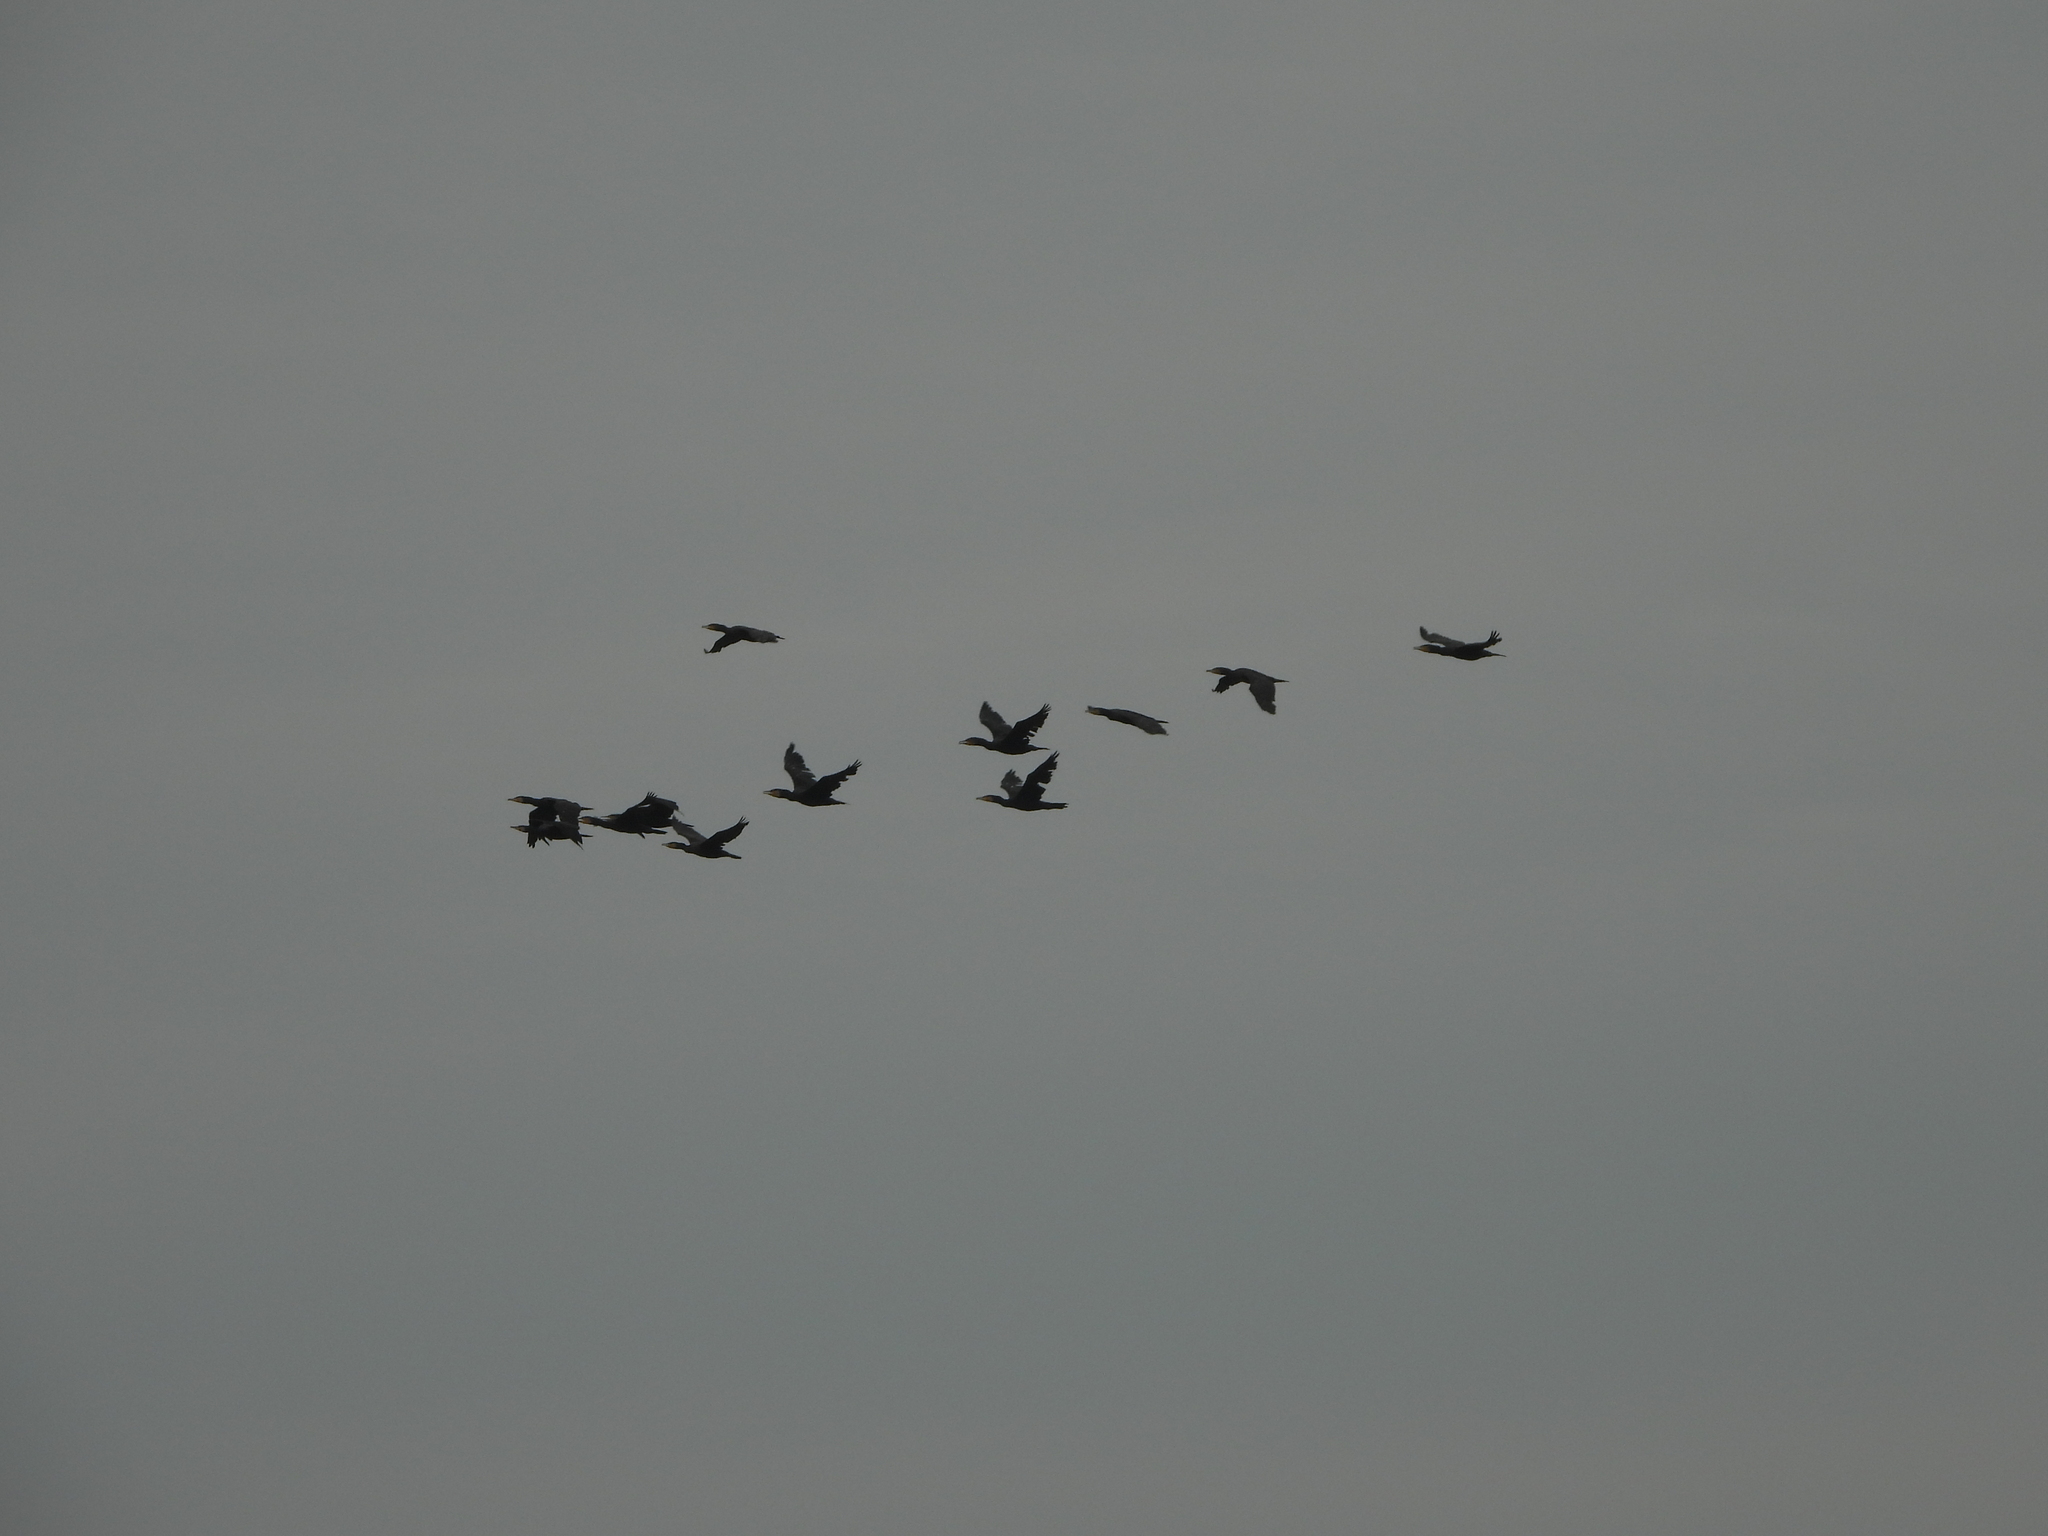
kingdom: Animalia
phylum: Chordata
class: Aves
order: Suliformes
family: Phalacrocoracidae
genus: Phalacrocorax
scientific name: Phalacrocorax carbo
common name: Great cormorant
